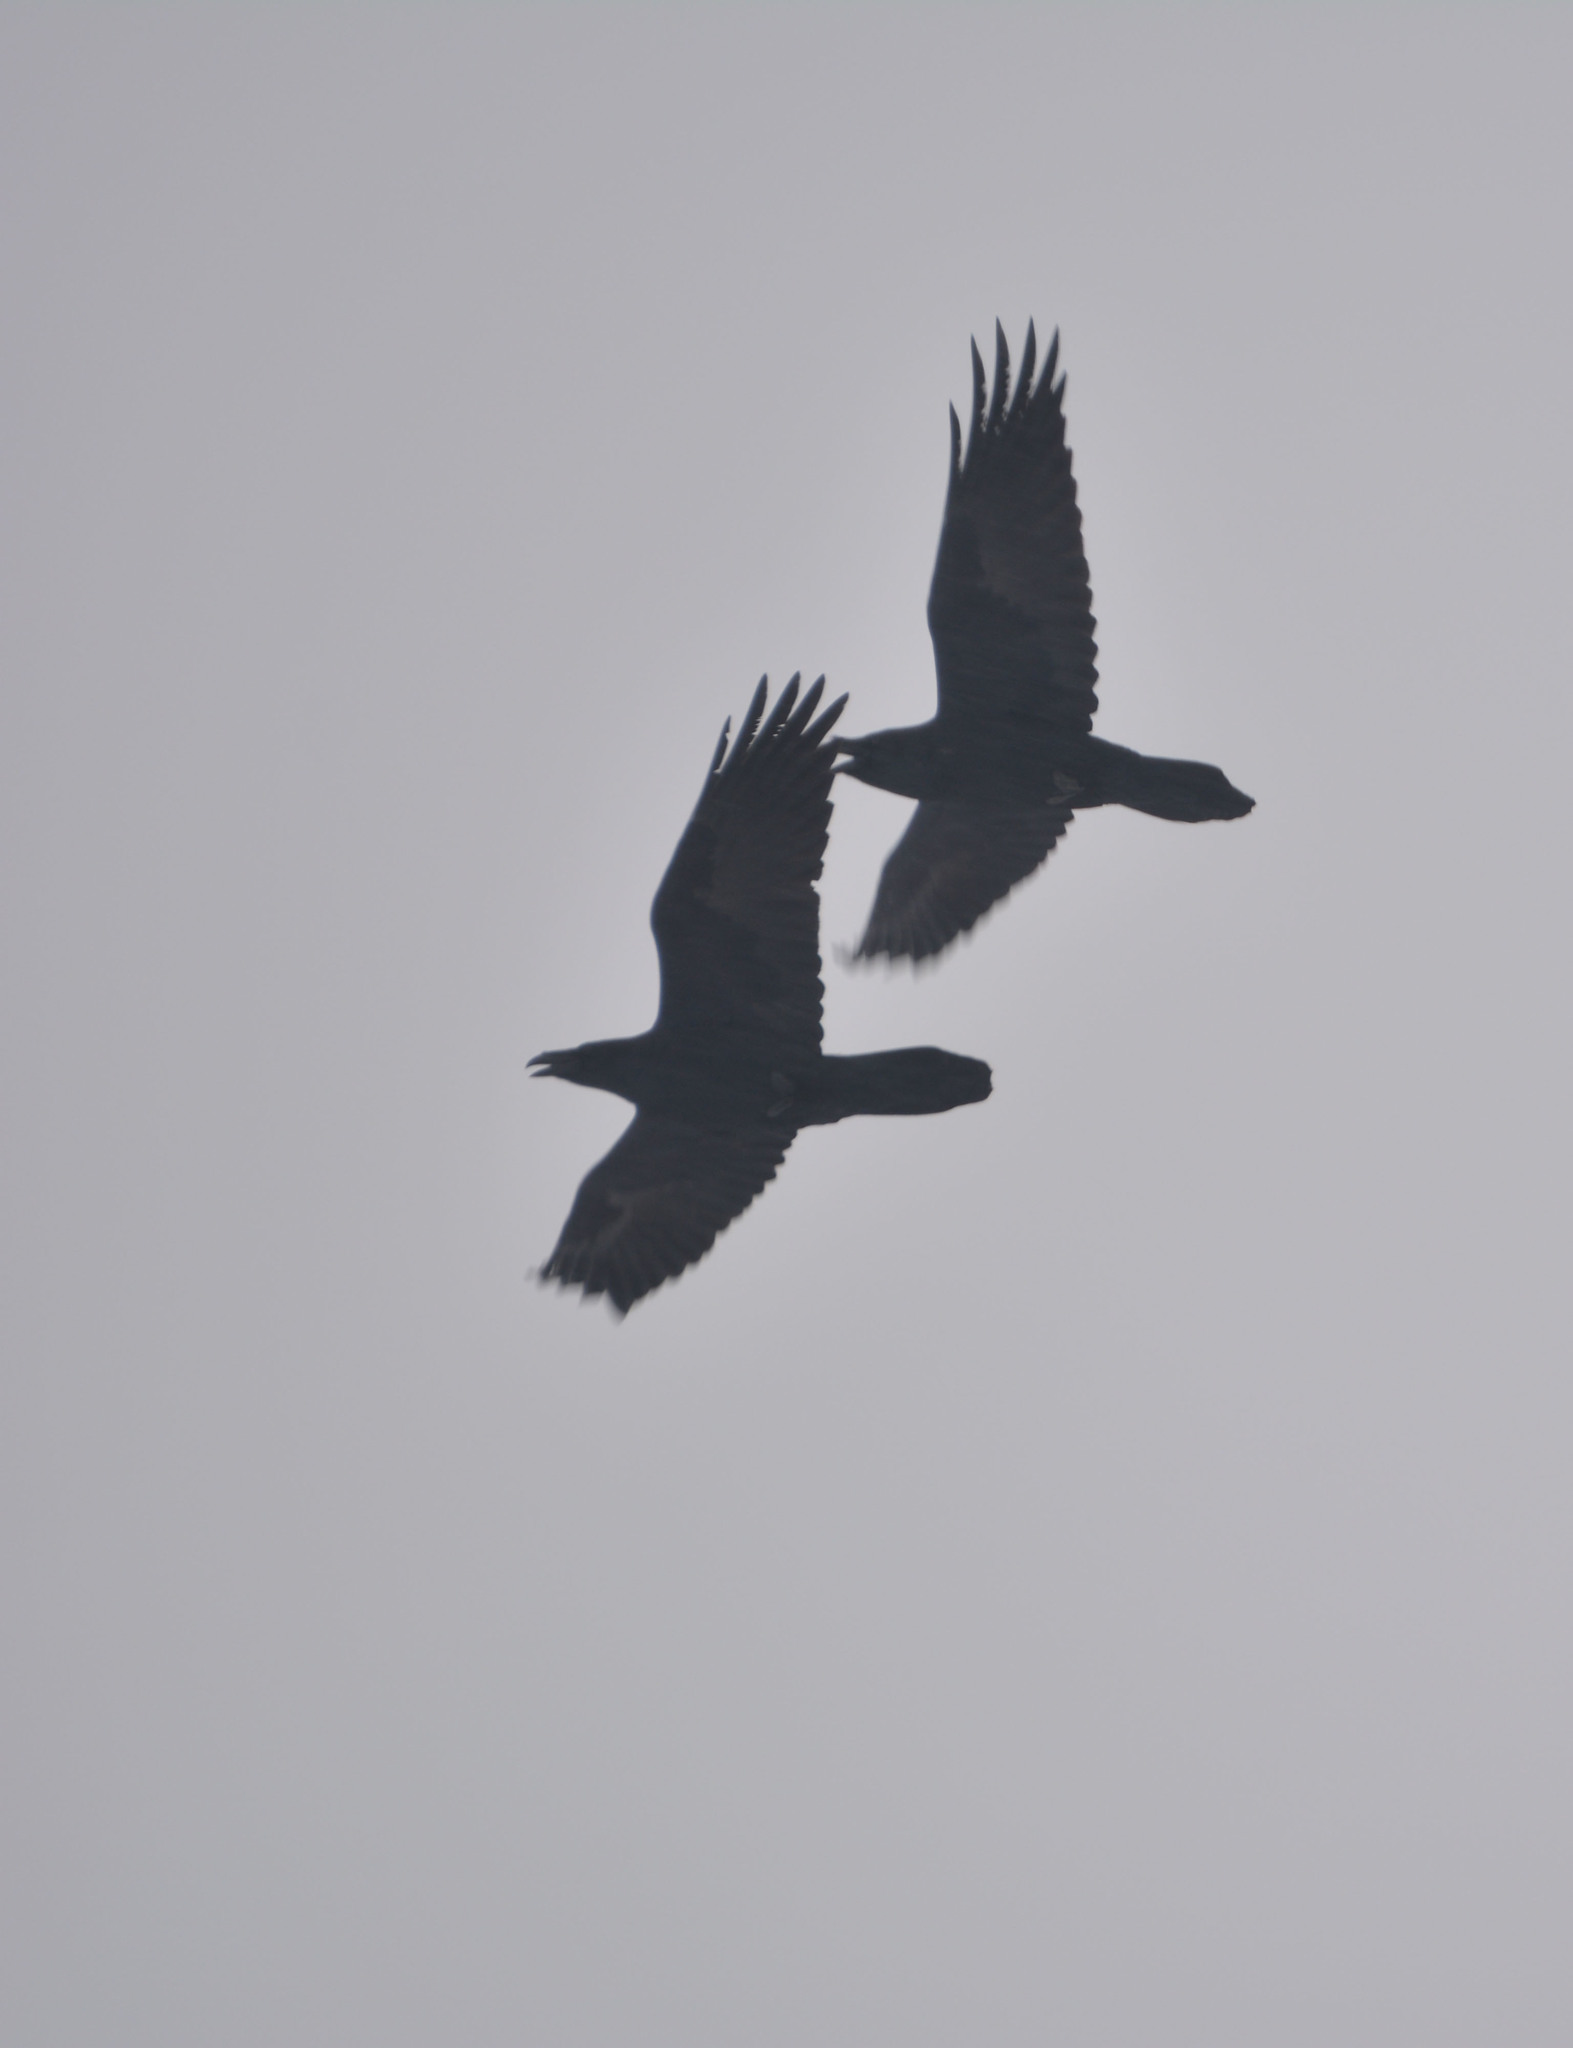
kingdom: Animalia
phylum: Chordata
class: Aves
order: Passeriformes
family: Corvidae
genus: Corvus
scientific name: Corvus corax
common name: Common raven
